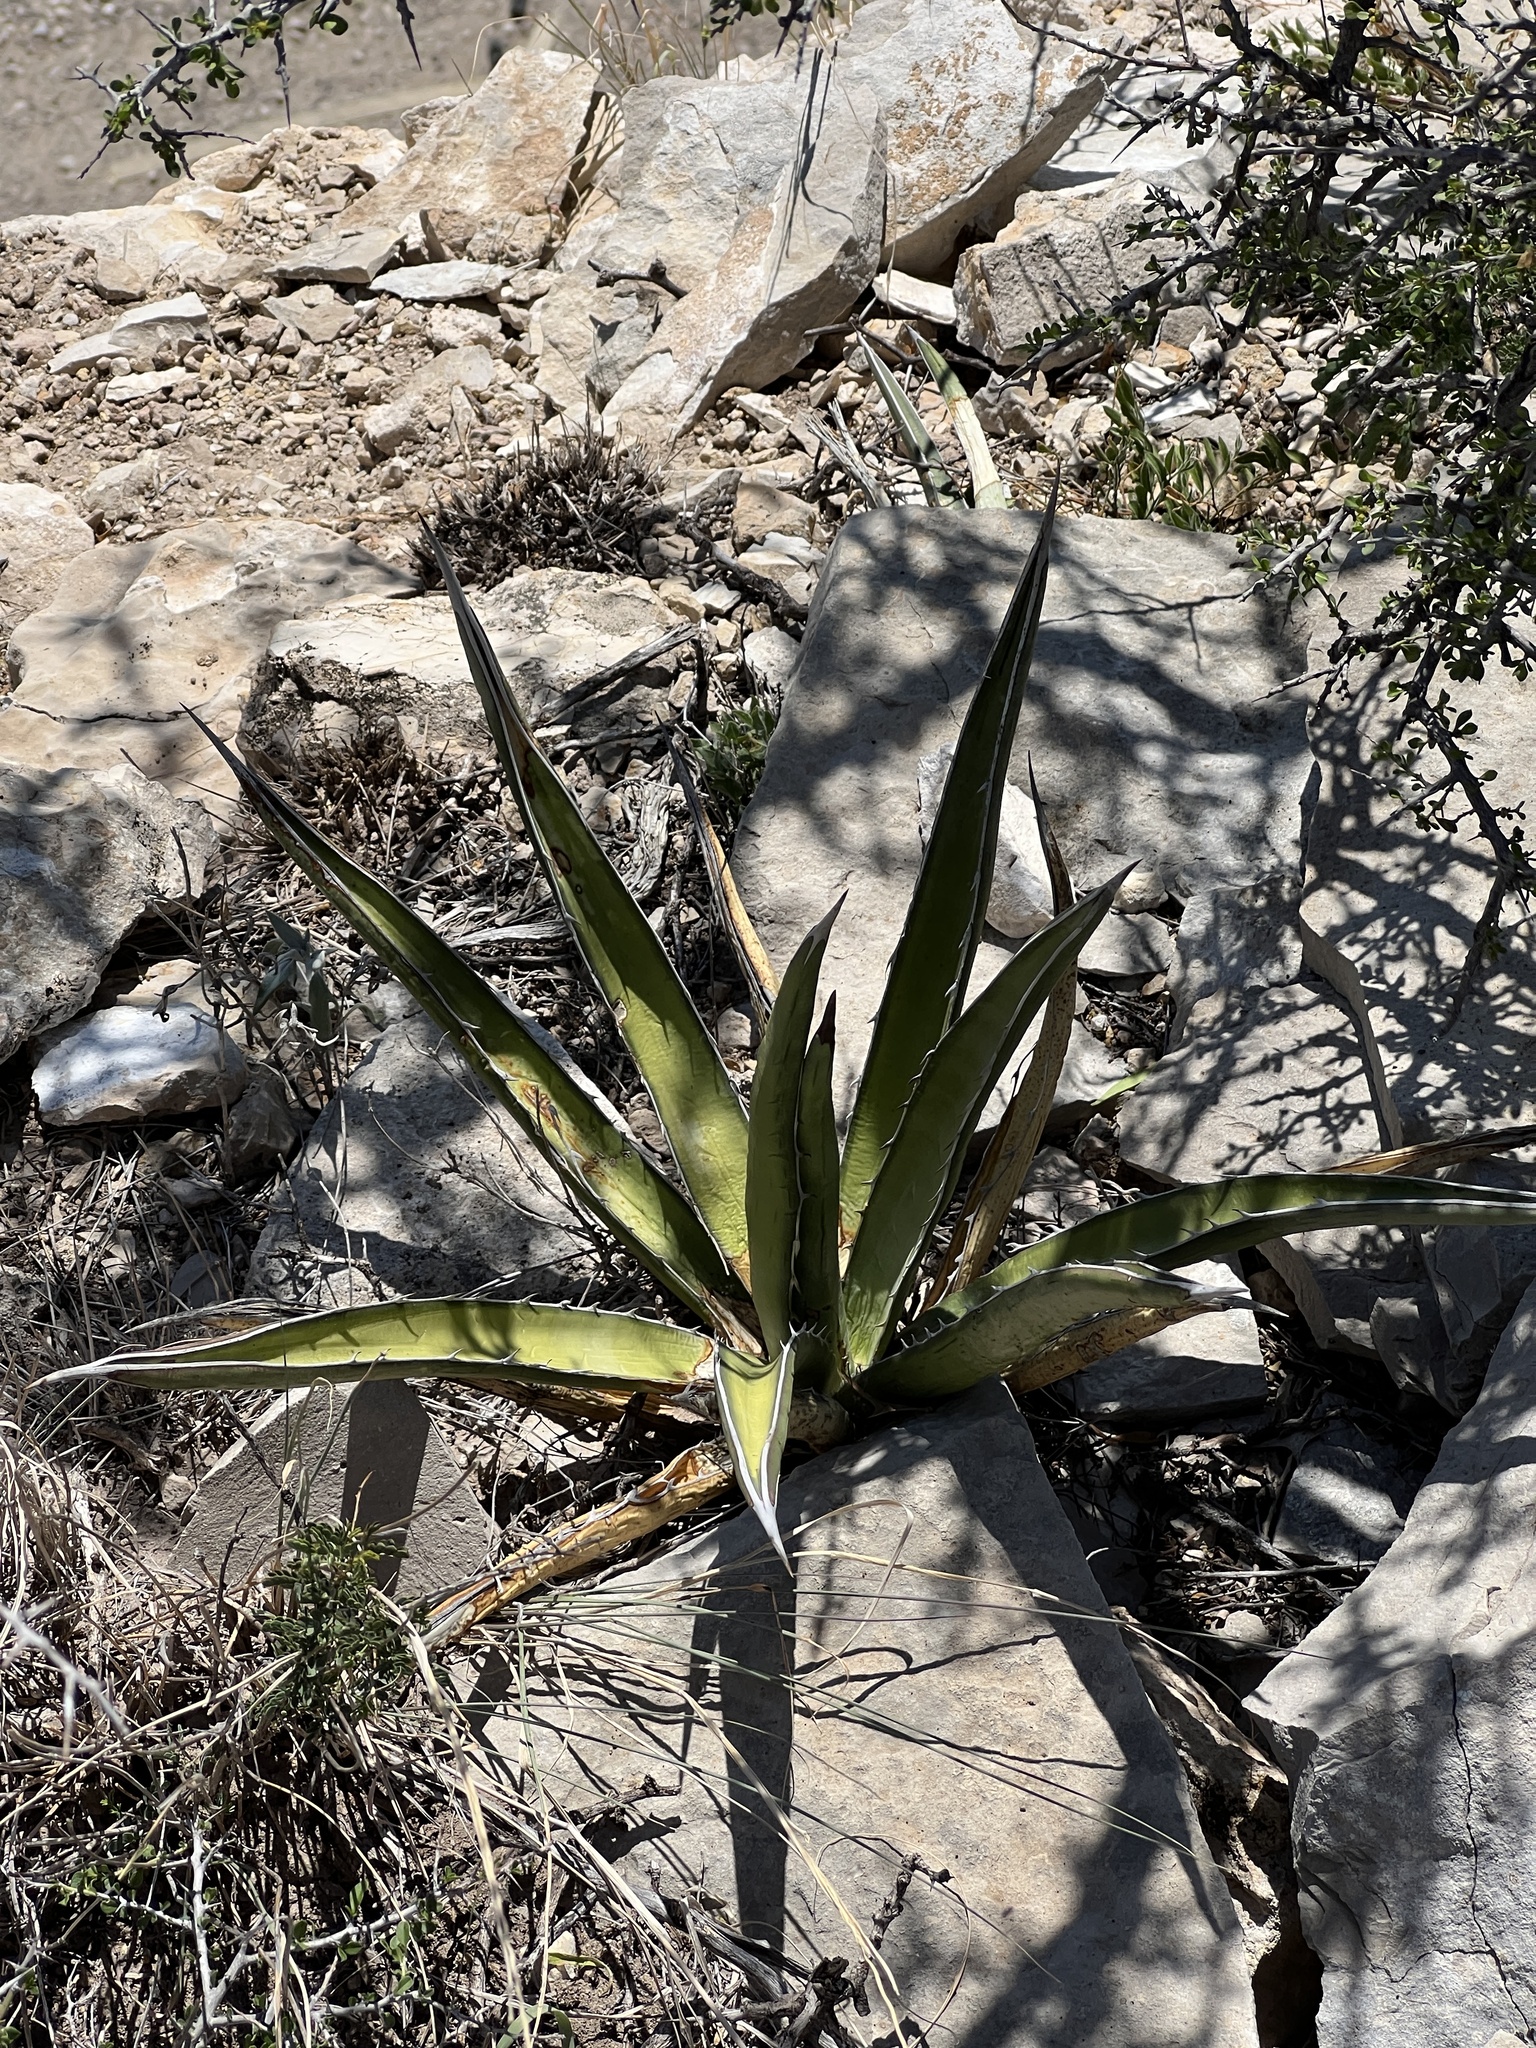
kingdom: Plantae
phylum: Tracheophyta
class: Liliopsida
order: Asparagales
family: Asparagaceae
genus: Agave
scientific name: Agave lechuguilla
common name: Lecheguilla agave
